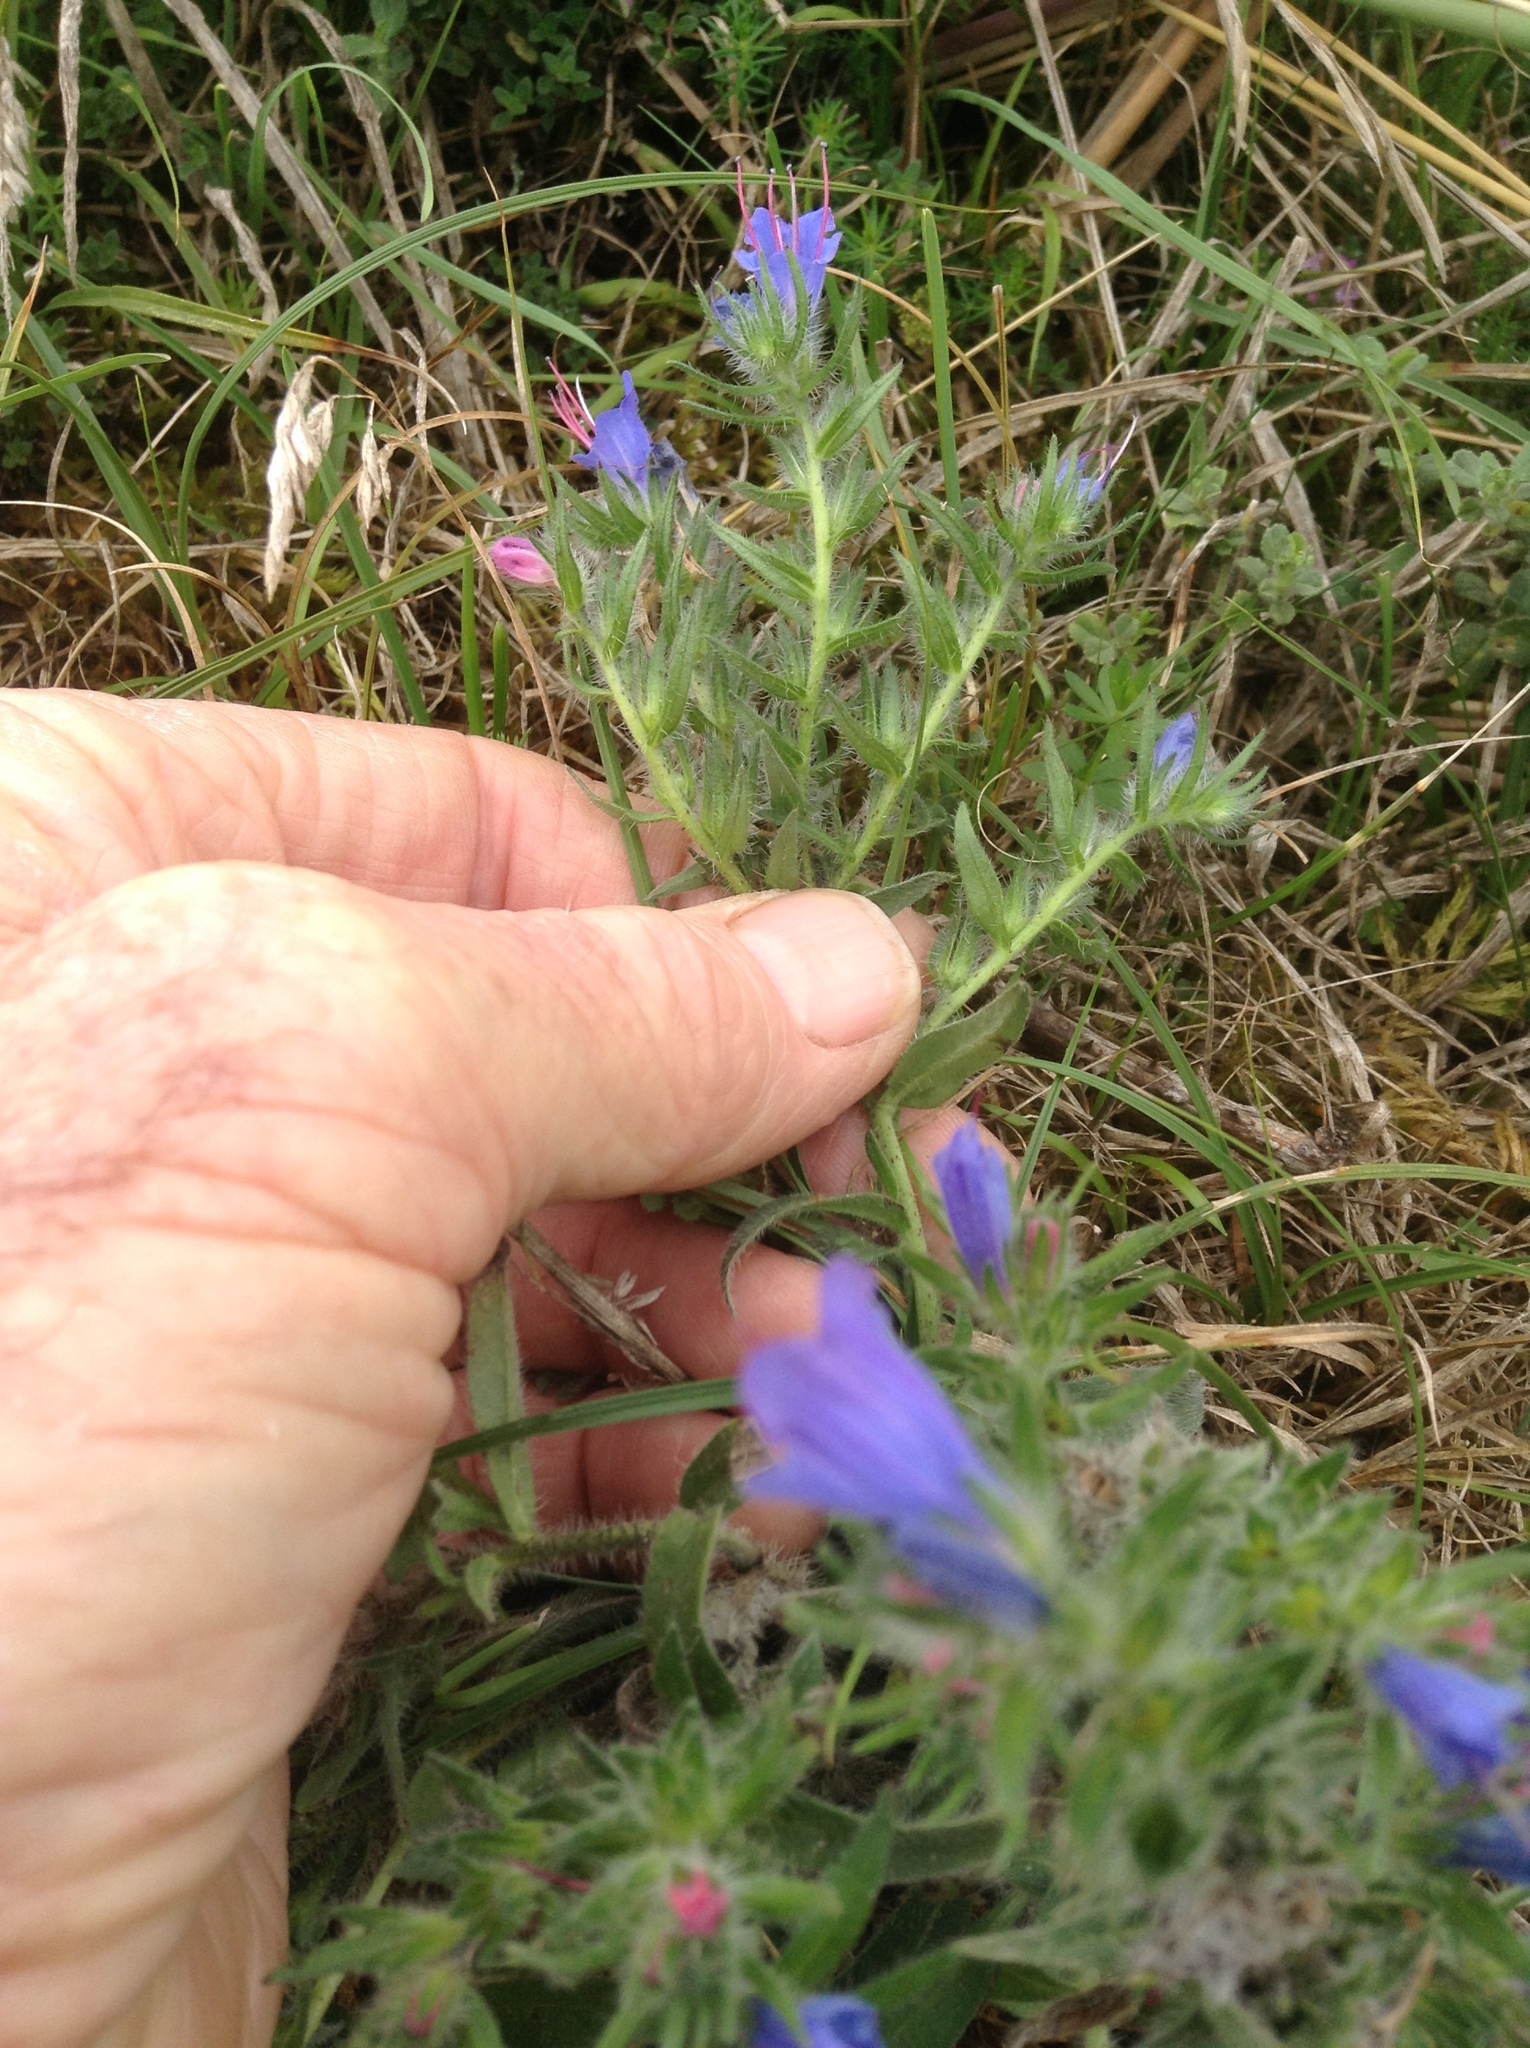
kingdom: Plantae
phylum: Tracheophyta
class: Magnoliopsida
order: Boraginales
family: Boraginaceae
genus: Echium
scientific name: Echium vulgare
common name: Common viper's bugloss
